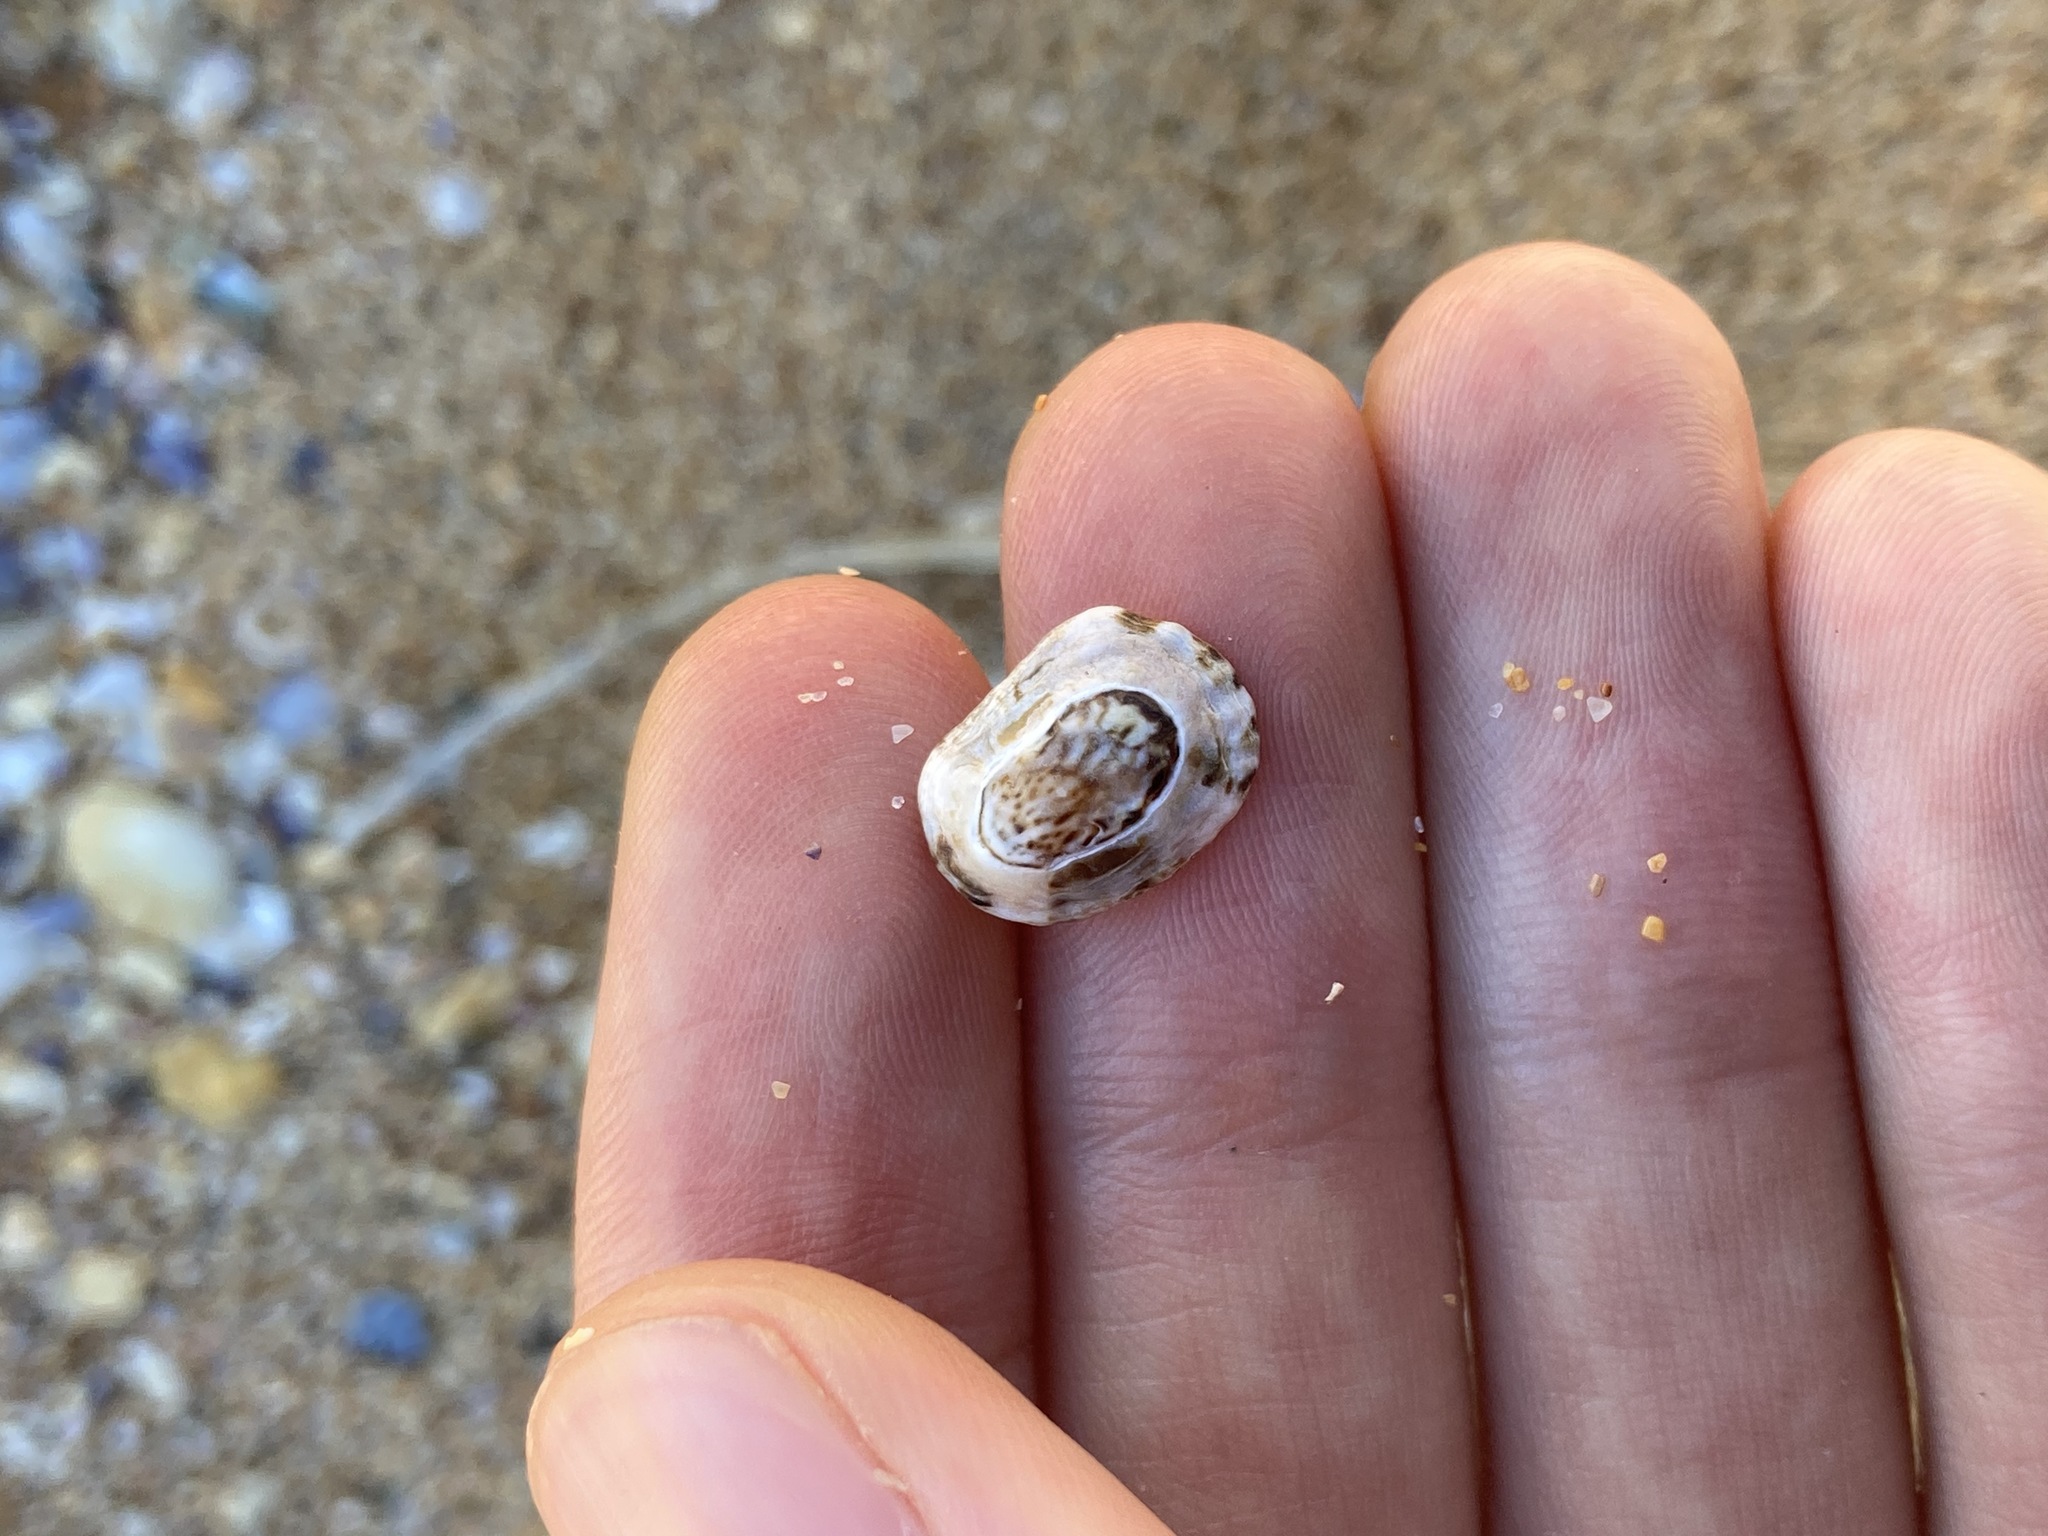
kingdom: Animalia
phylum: Mollusca
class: Gastropoda
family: Lottiidae
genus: Patelloida
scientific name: Patelloida latistrigata
